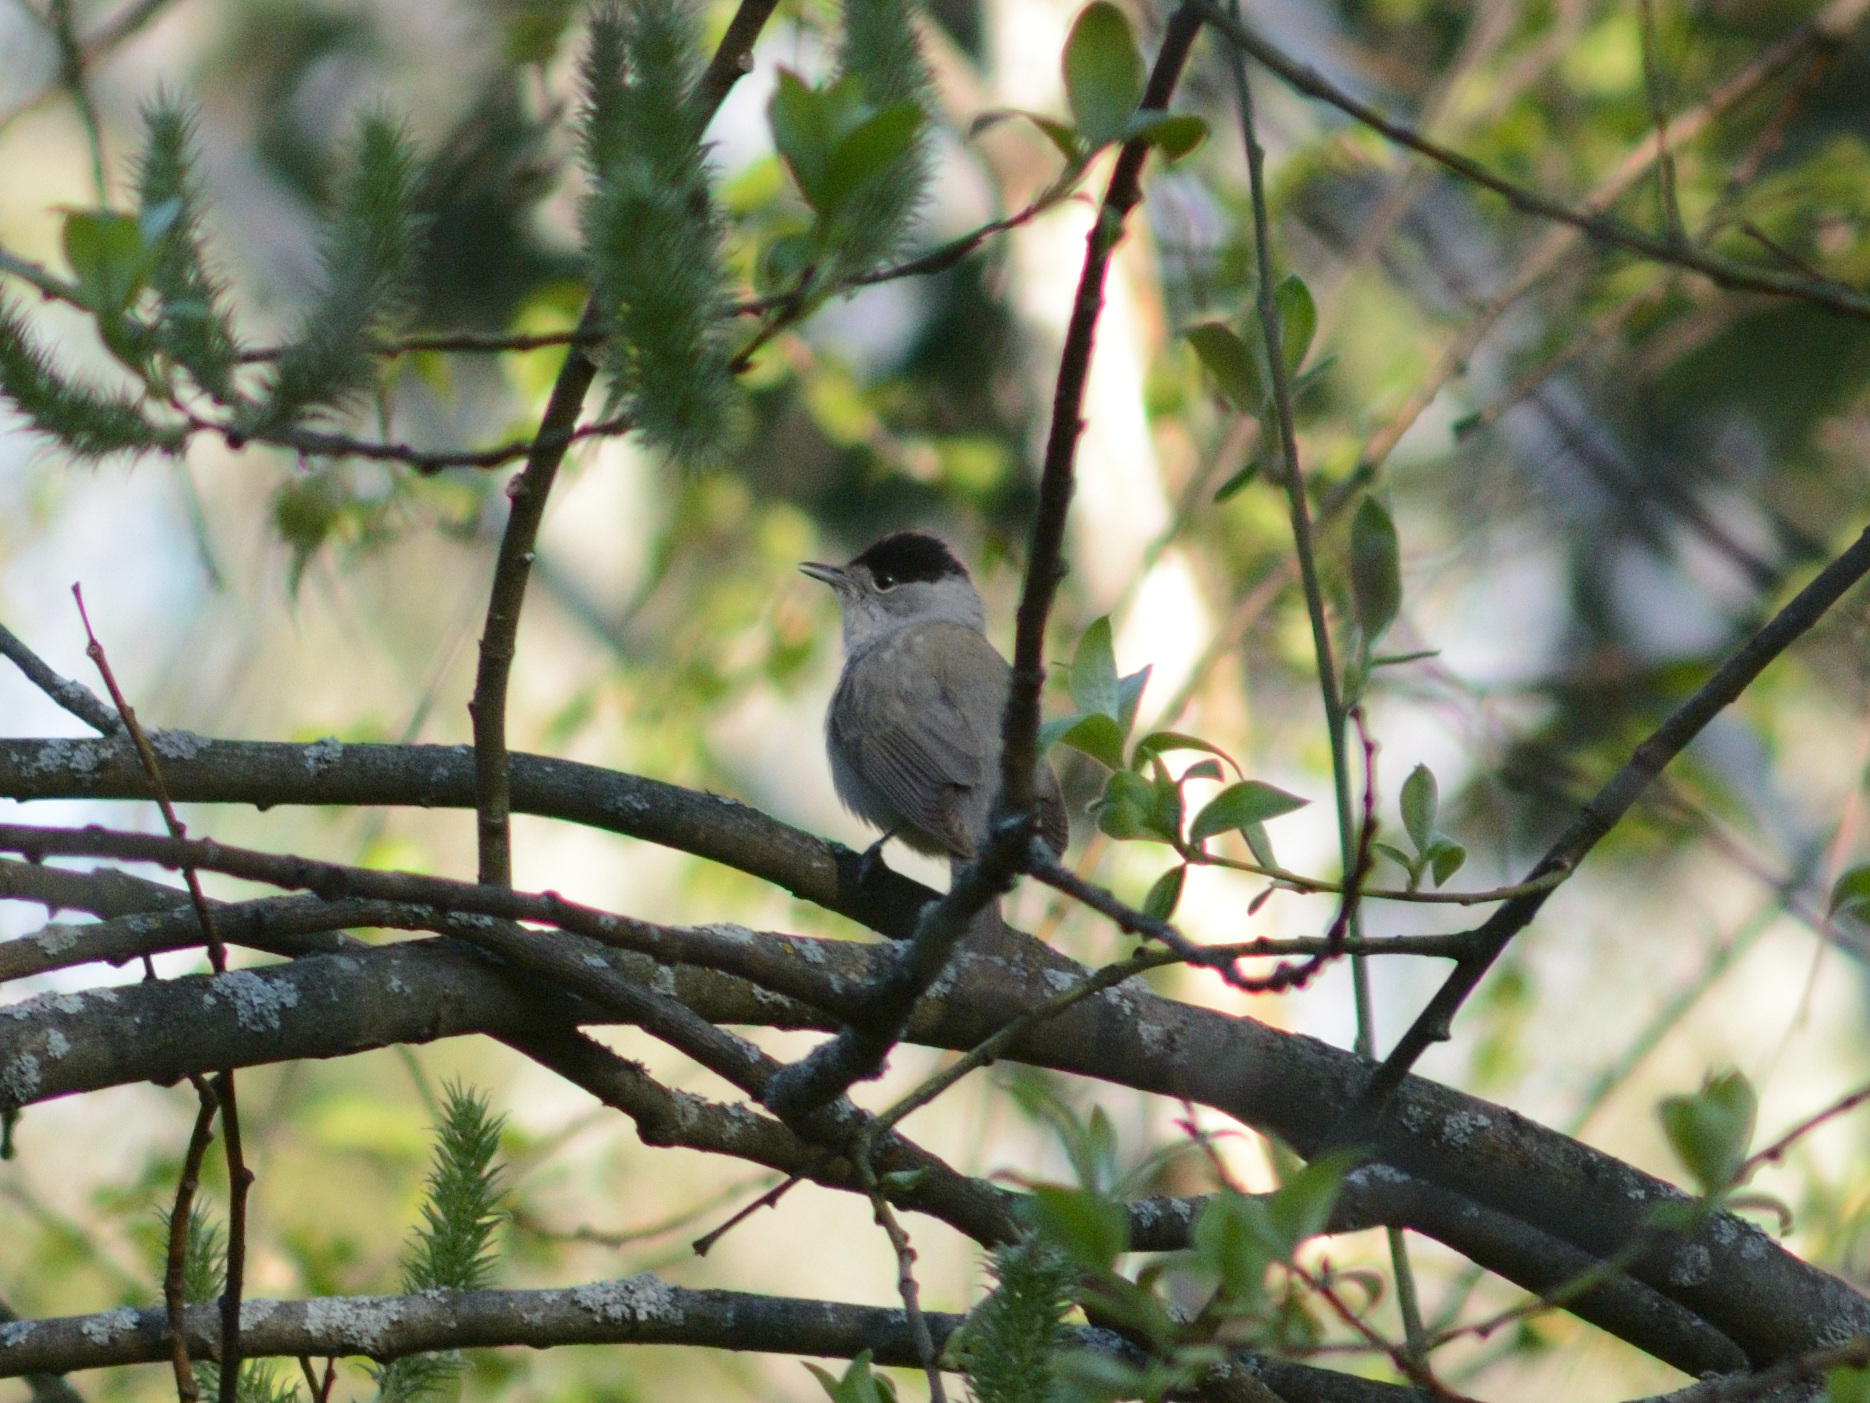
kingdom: Animalia
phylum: Chordata
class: Aves
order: Passeriformes
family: Sylviidae
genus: Sylvia
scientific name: Sylvia atricapilla
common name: Eurasian blackcap
